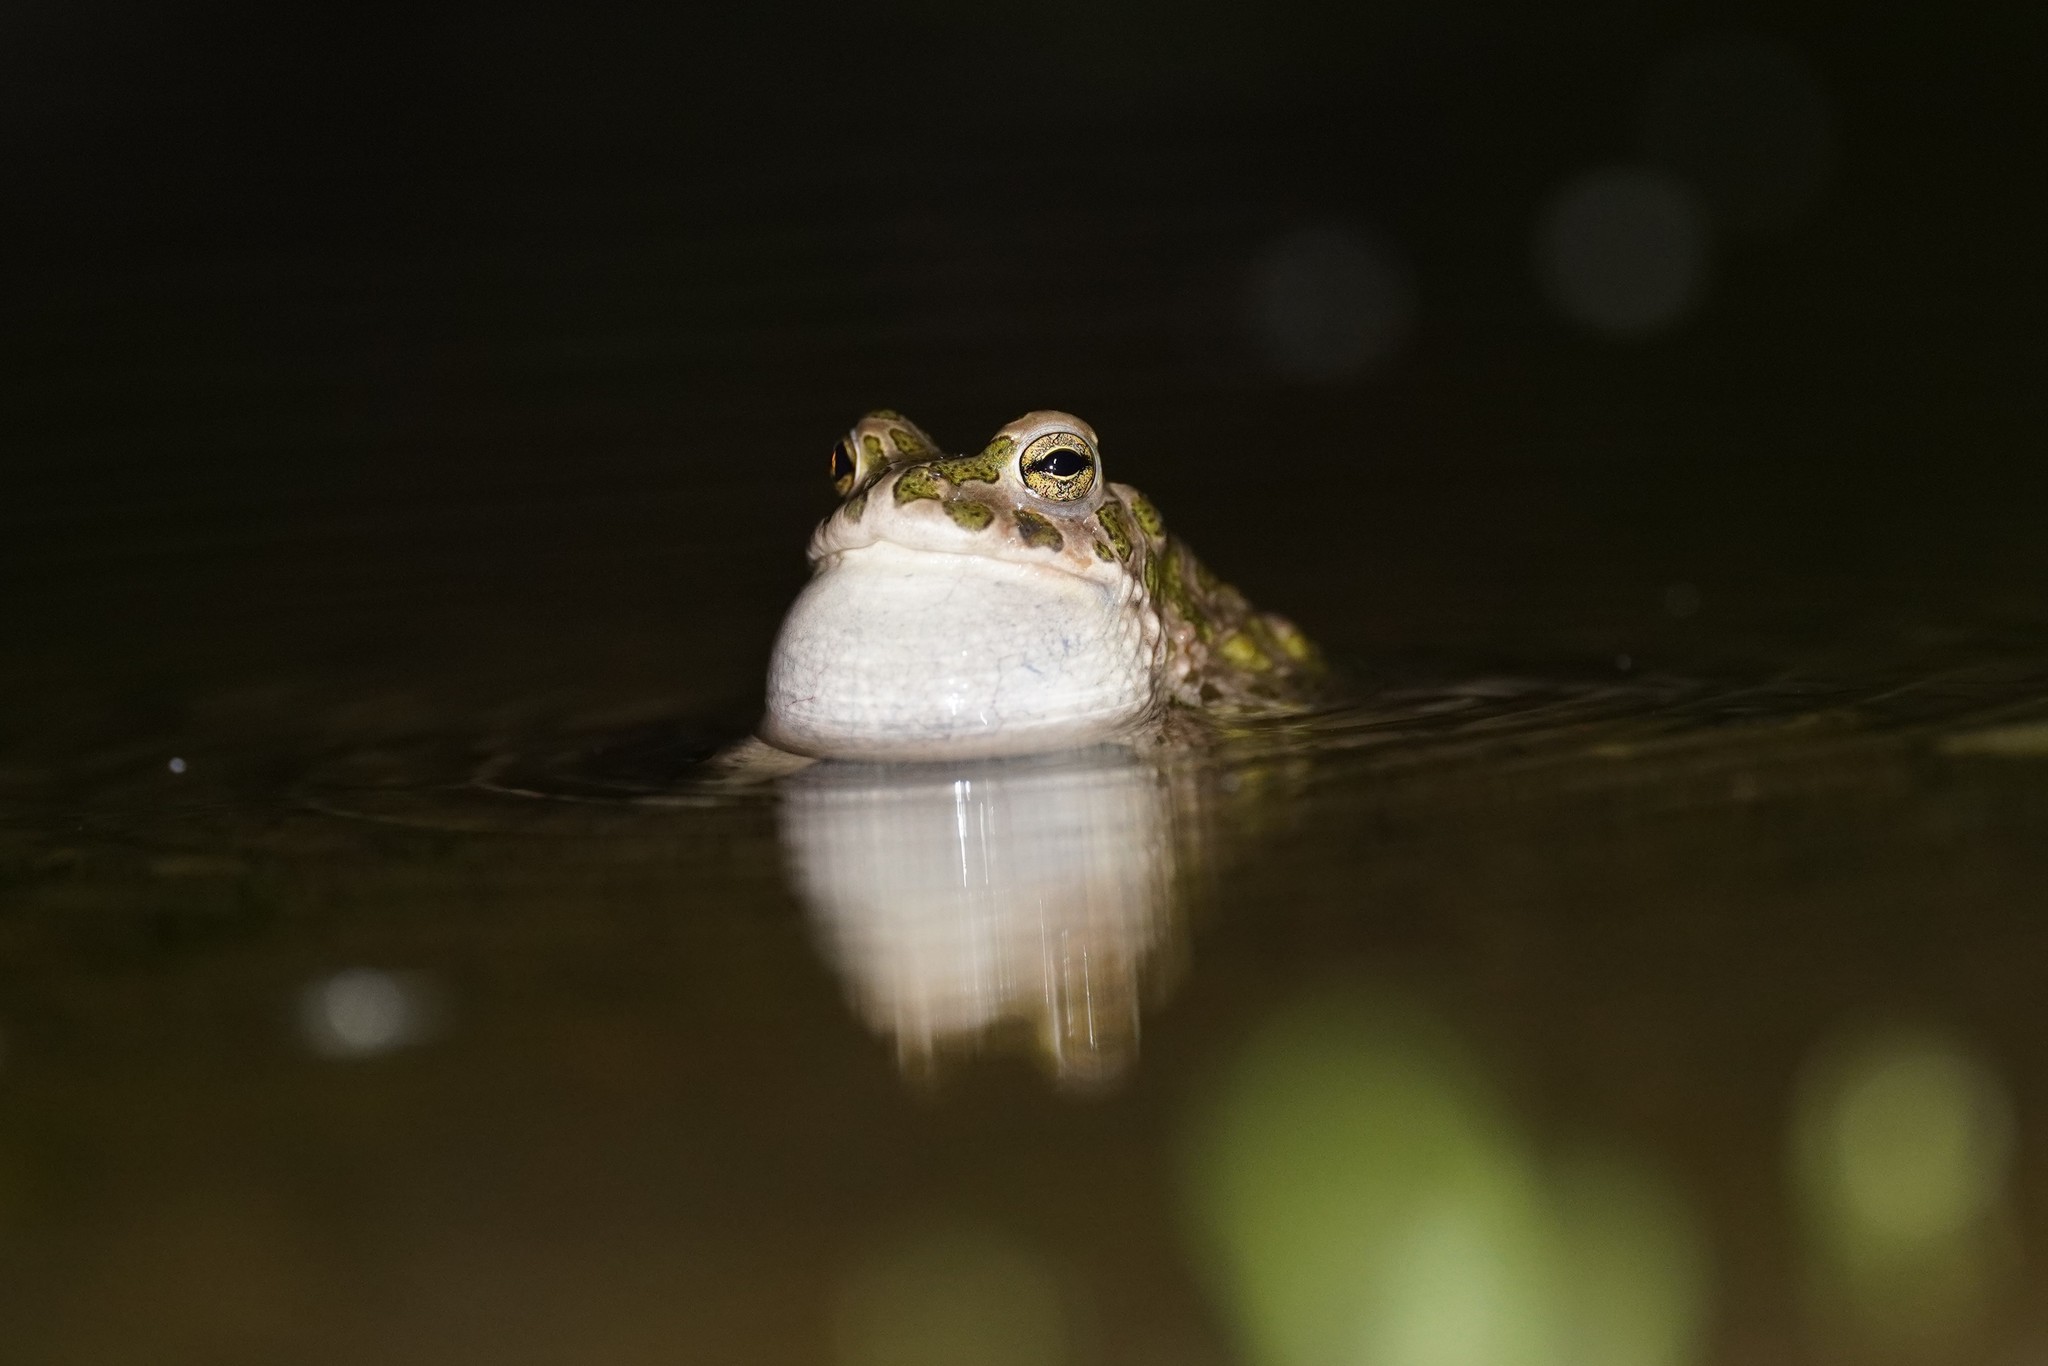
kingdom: Animalia
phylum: Chordata
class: Amphibia
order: Anura
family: Bufonidae
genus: Bufotes
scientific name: Bufotes viridis
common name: European green toad
